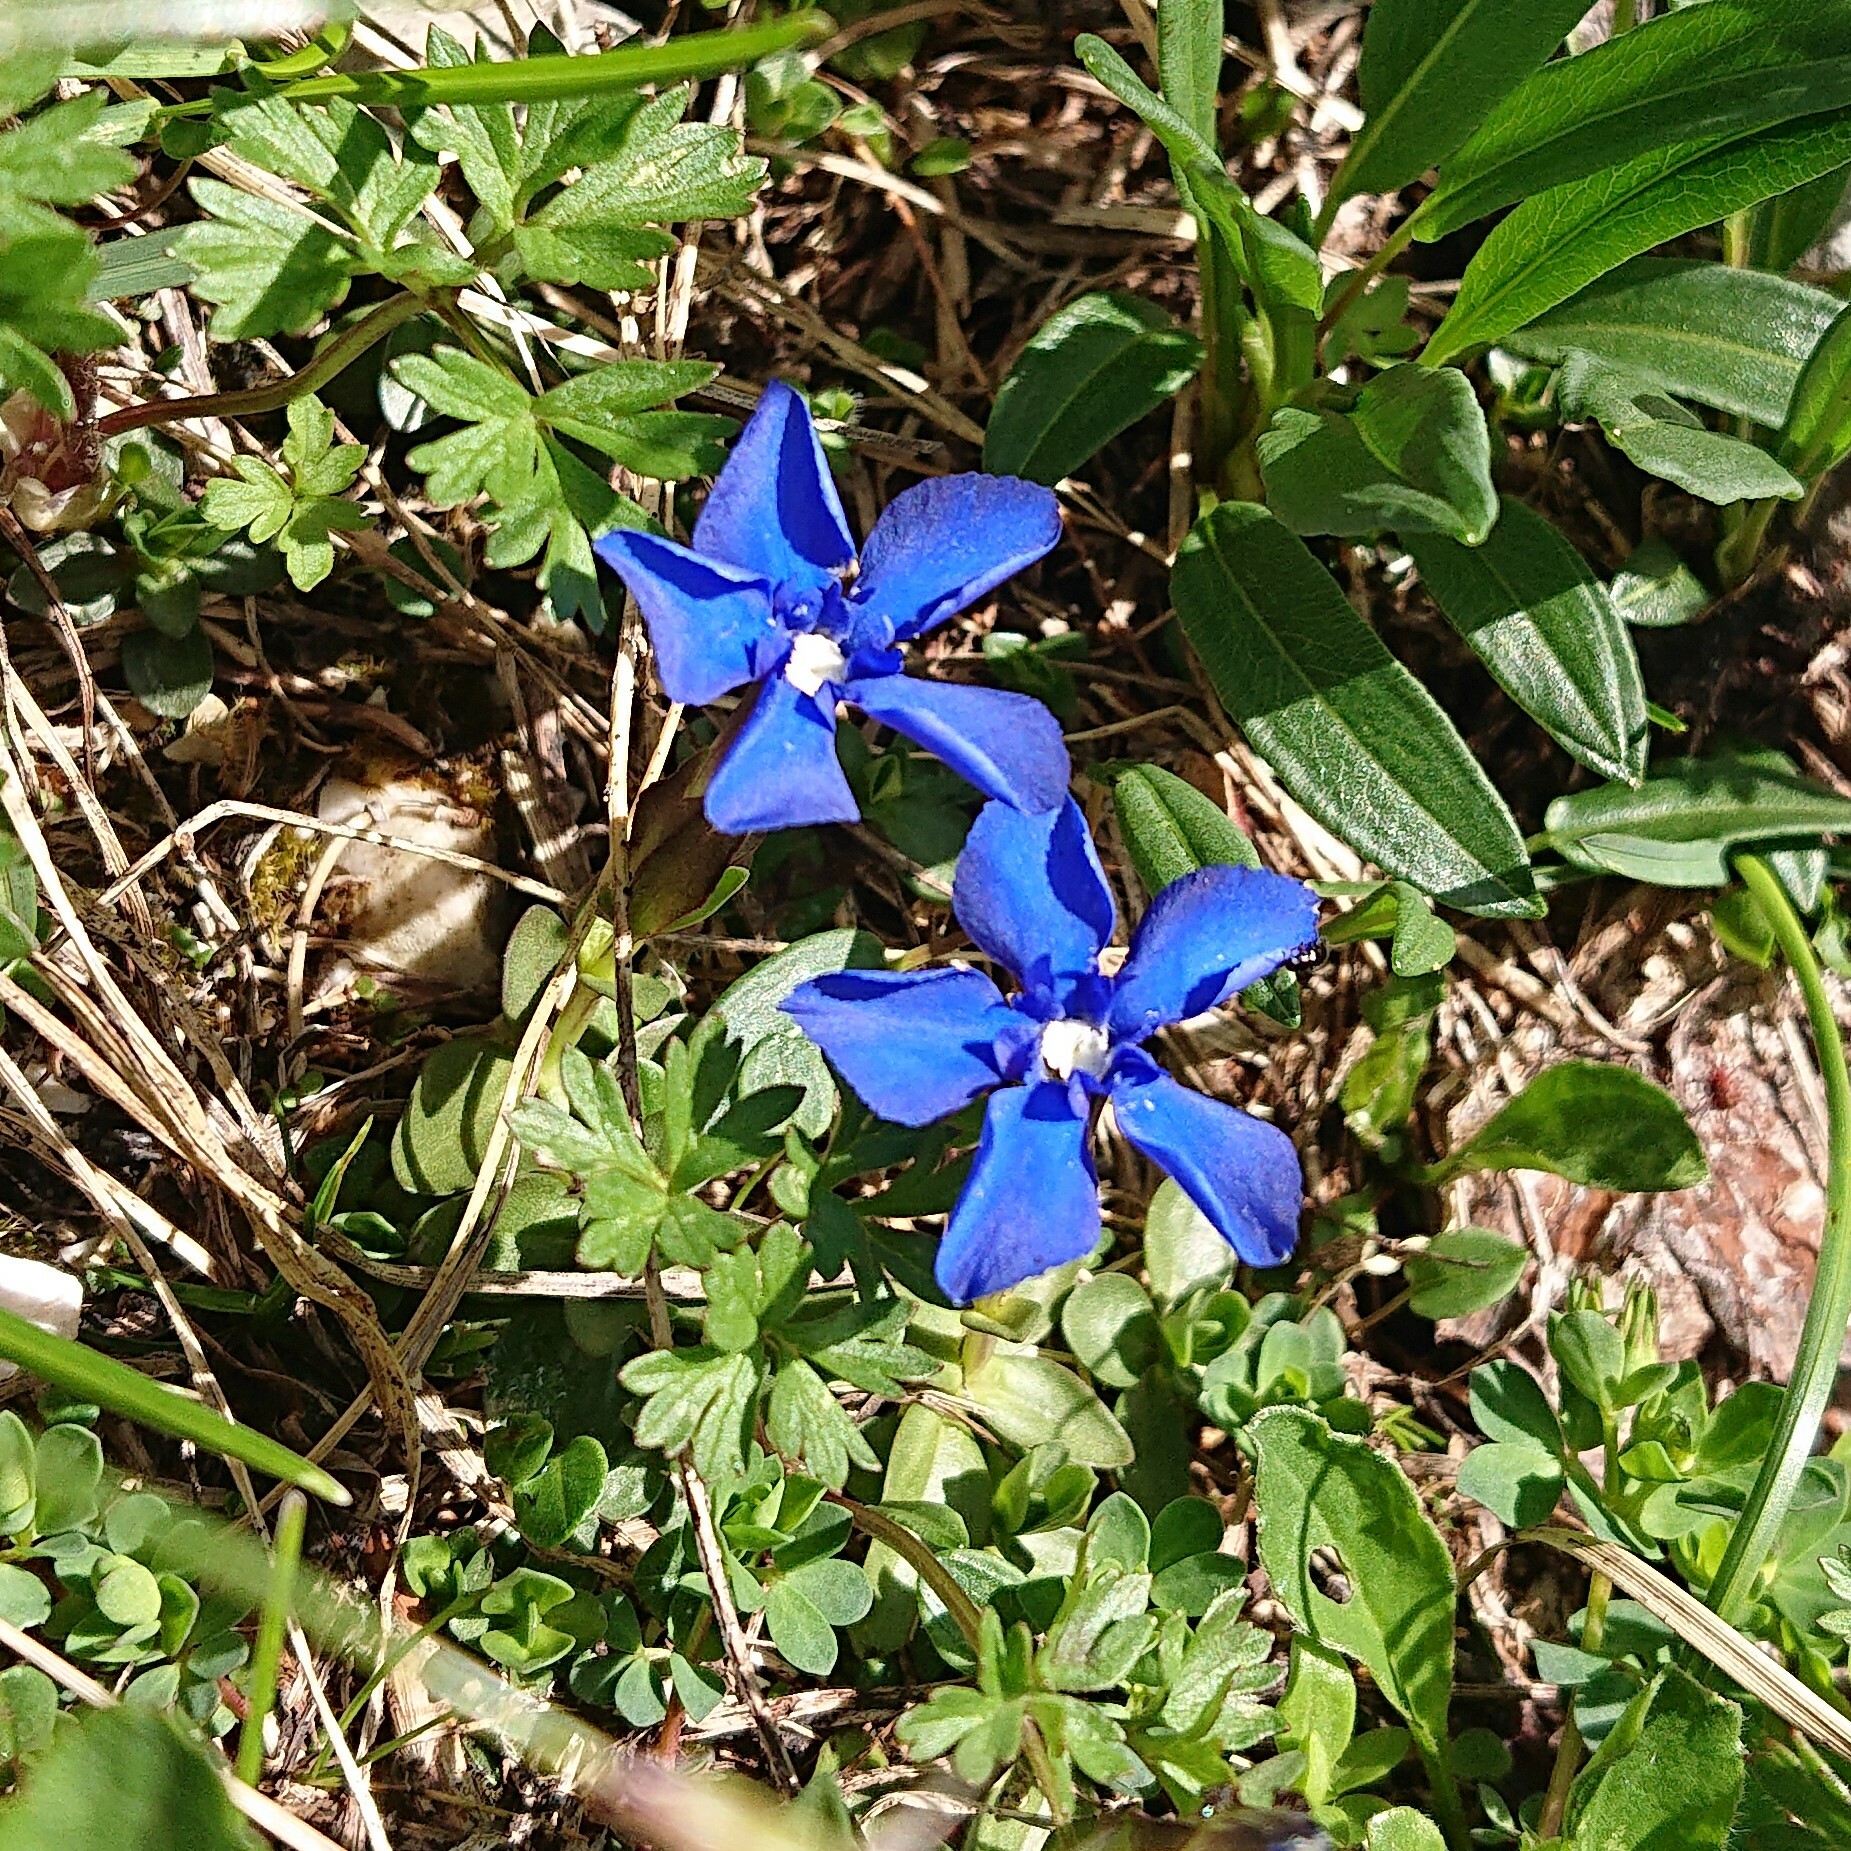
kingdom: Plantae
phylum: Tracheophyta
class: Magnoliopsida
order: Gentianales
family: Gentianaceae
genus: Gentiana
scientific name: Gentiana verna
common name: Spring gentian
